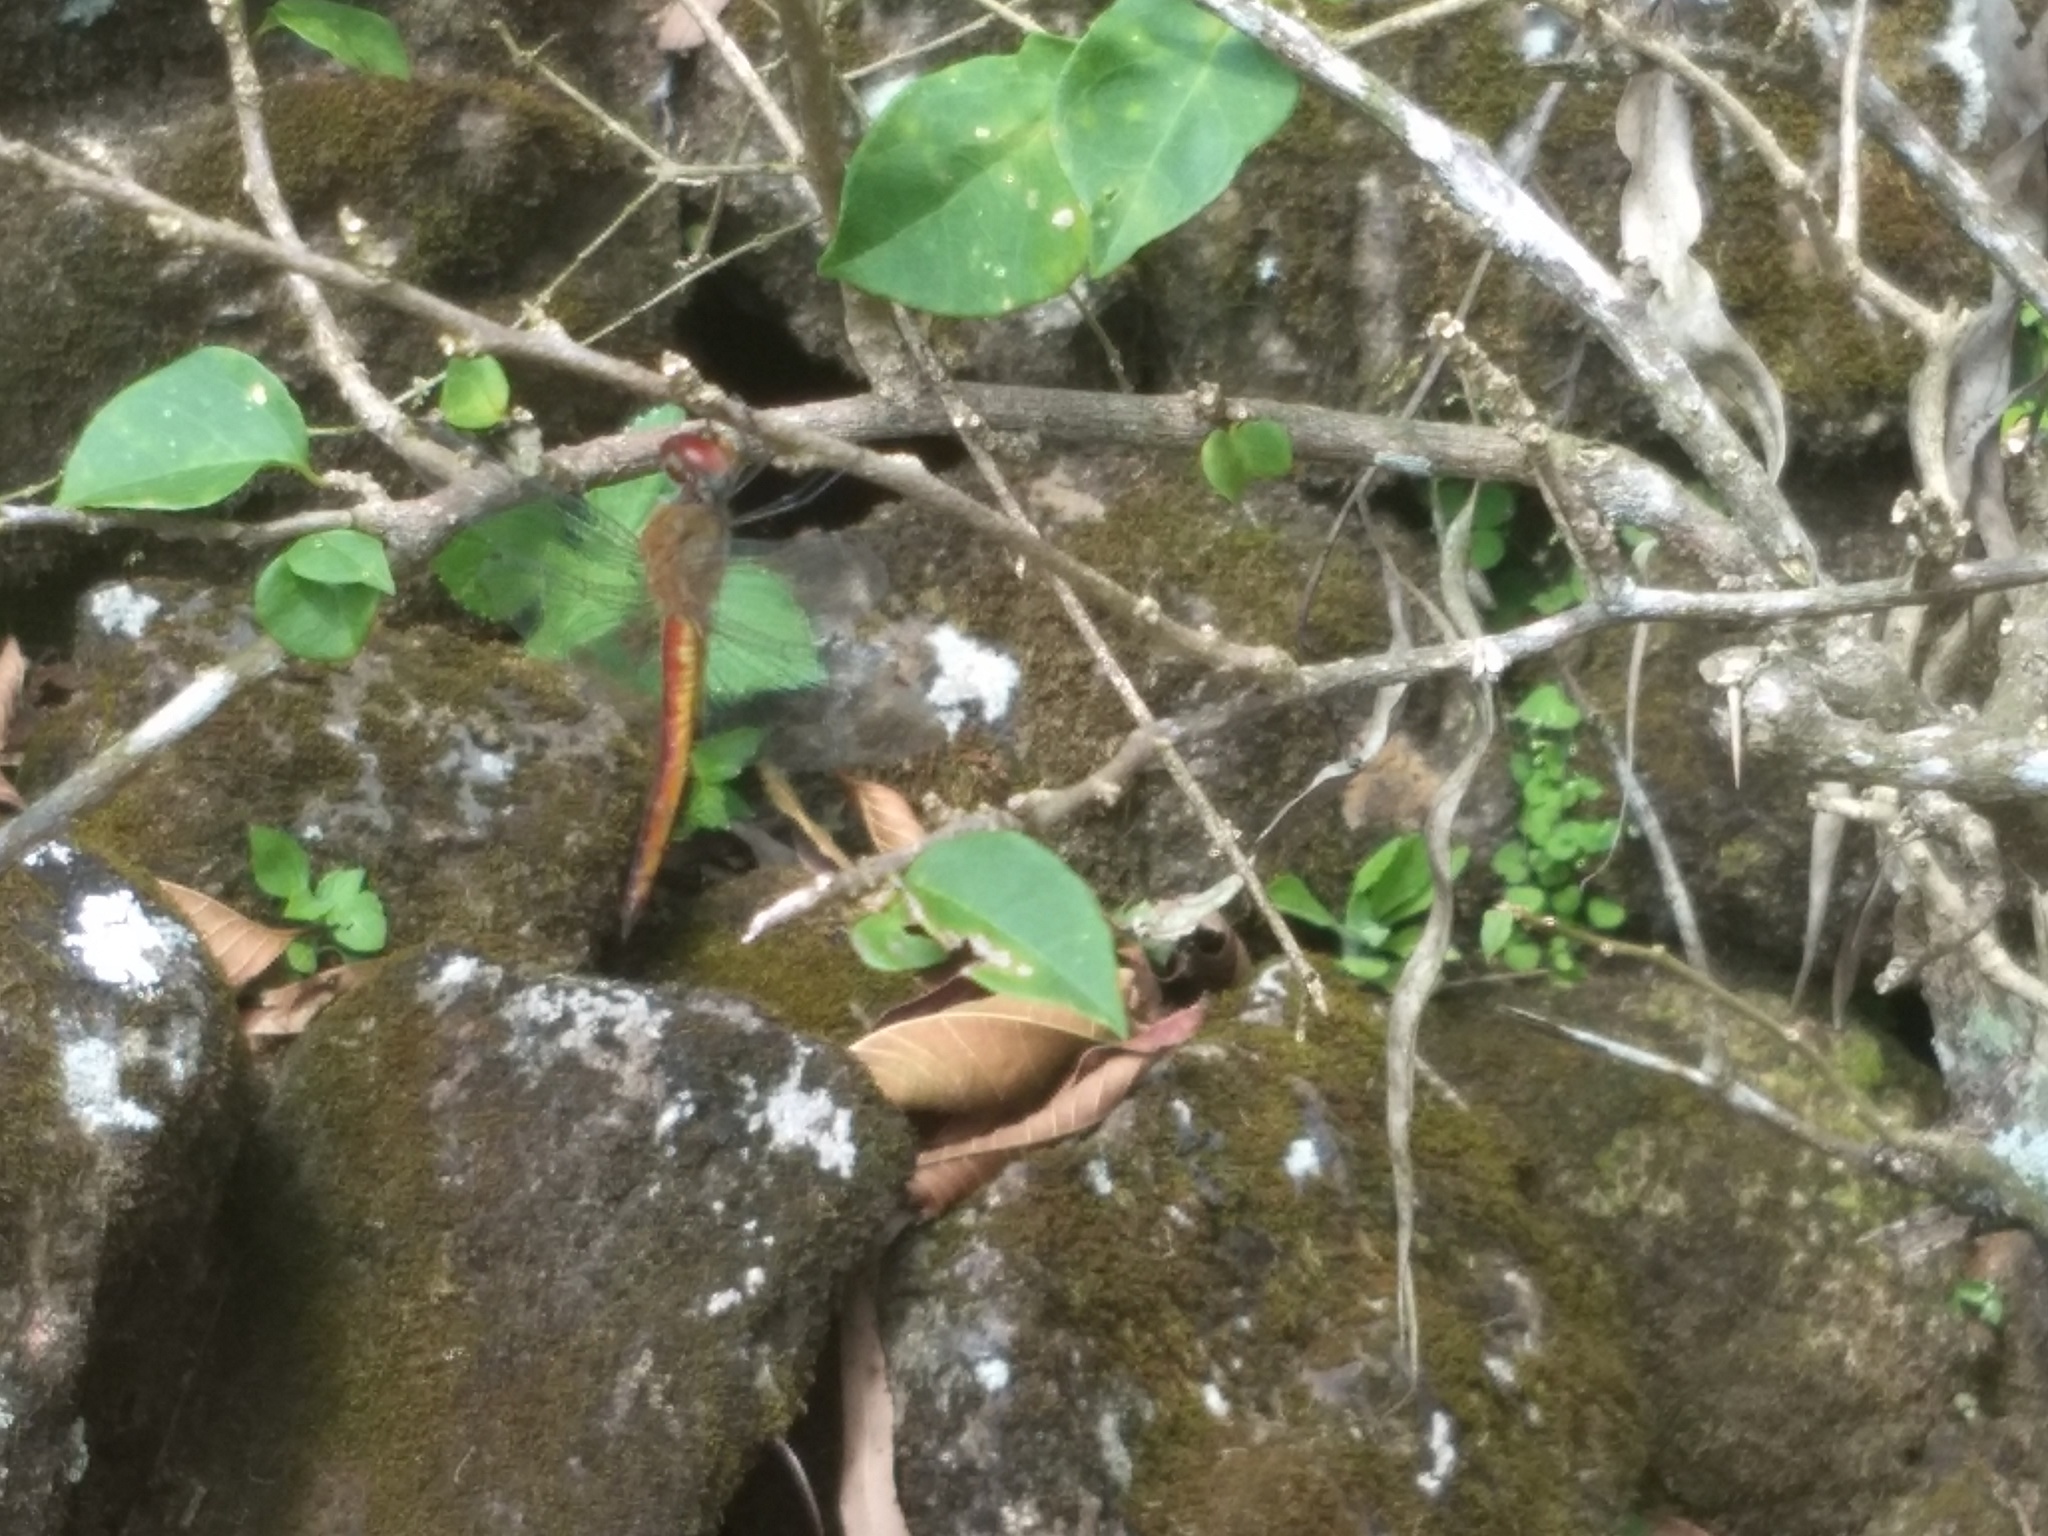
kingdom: Animalia
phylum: Arthropoda
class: Insecta
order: Odonata
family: Libellulidae
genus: Pantala
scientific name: Pantala flavescens
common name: Wandering glider
